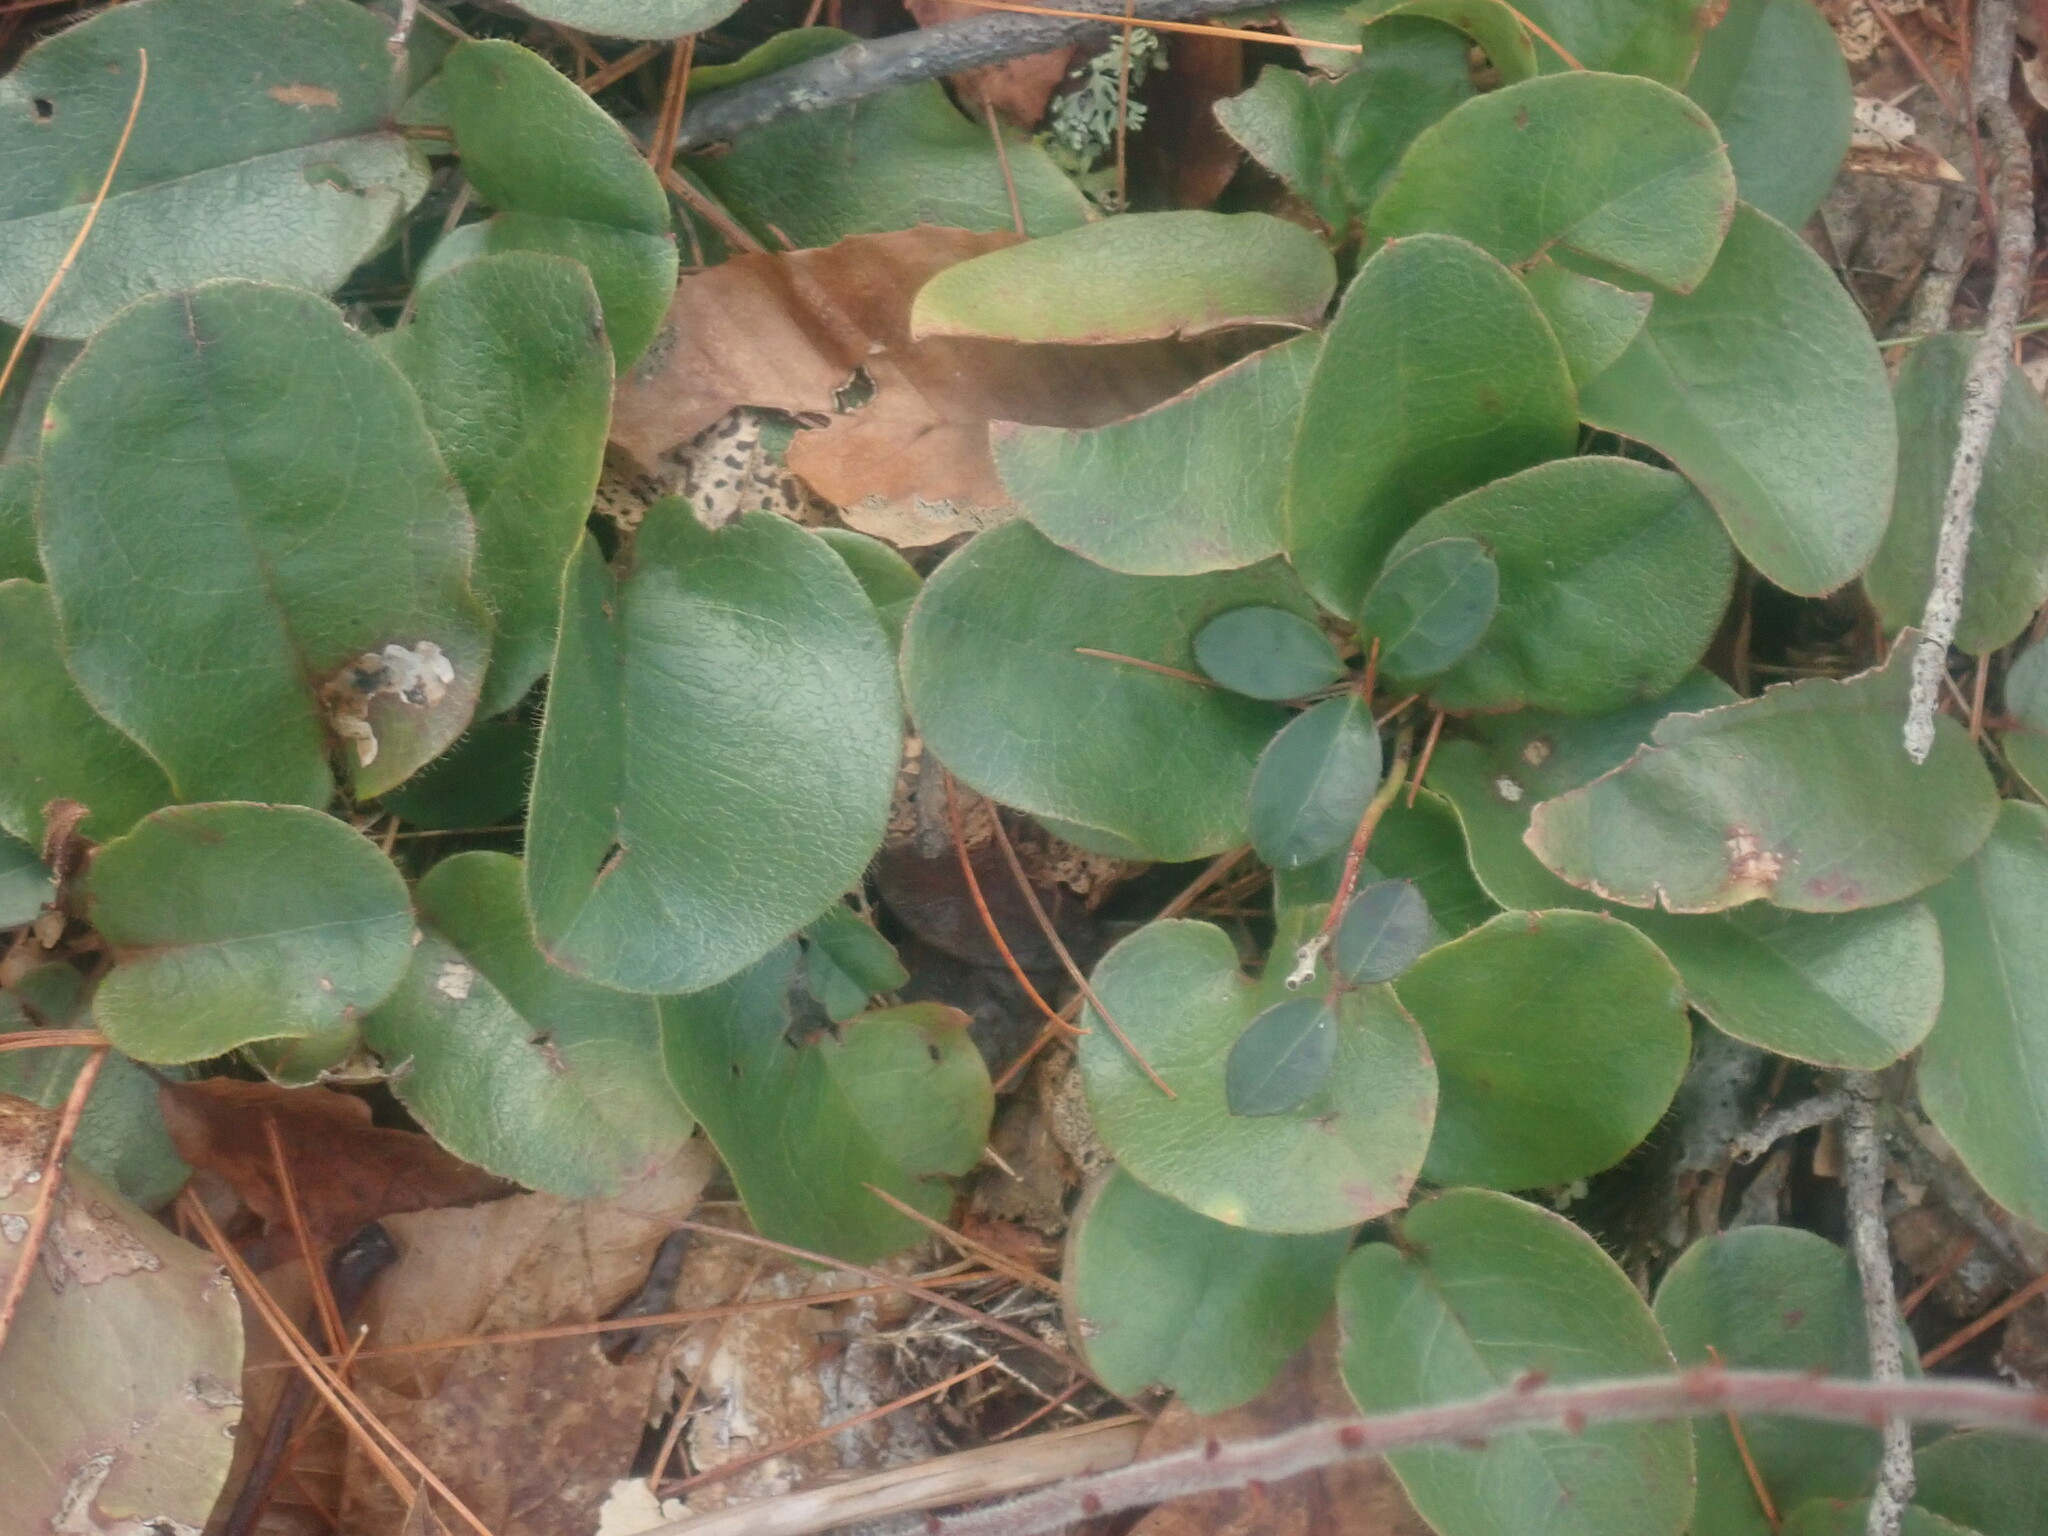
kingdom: Plantae
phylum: Tracheophyta
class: Magnoliopsida
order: Ericales
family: Ericaceae
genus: Epigaea
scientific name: Epigaea repens
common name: Gravelroot
